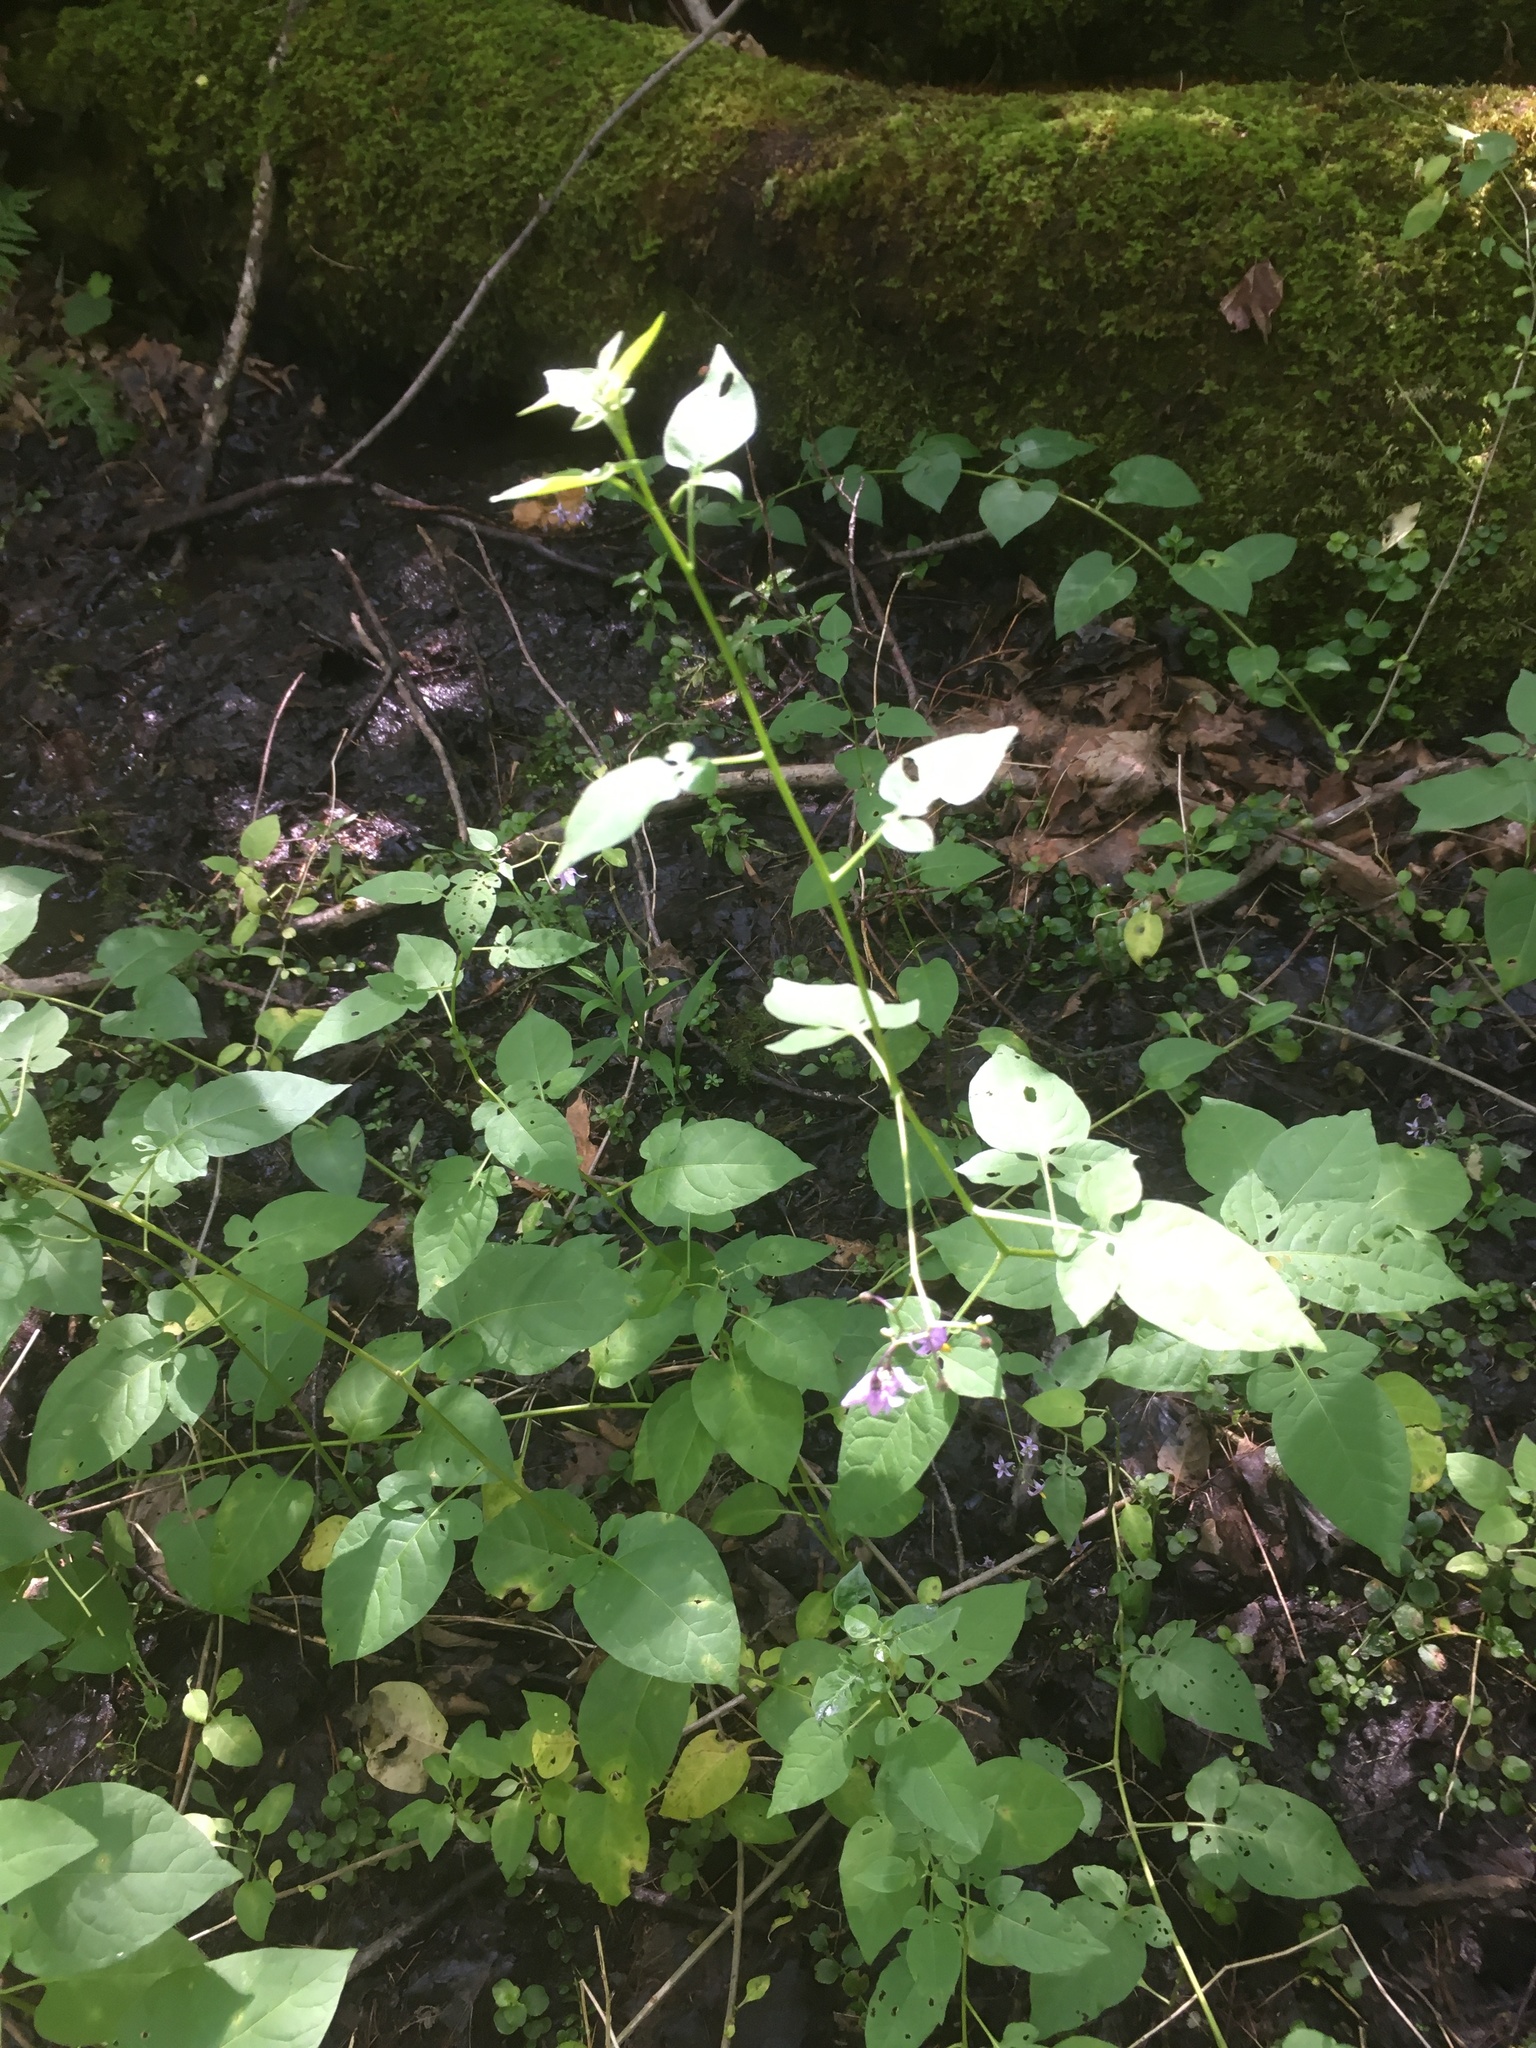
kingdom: Plantae
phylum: Tracheophyta
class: Magnoliopsida
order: Solanales
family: Solanaceae
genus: Solanum
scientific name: Solanum dulcamara
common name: Climbing nightshade
